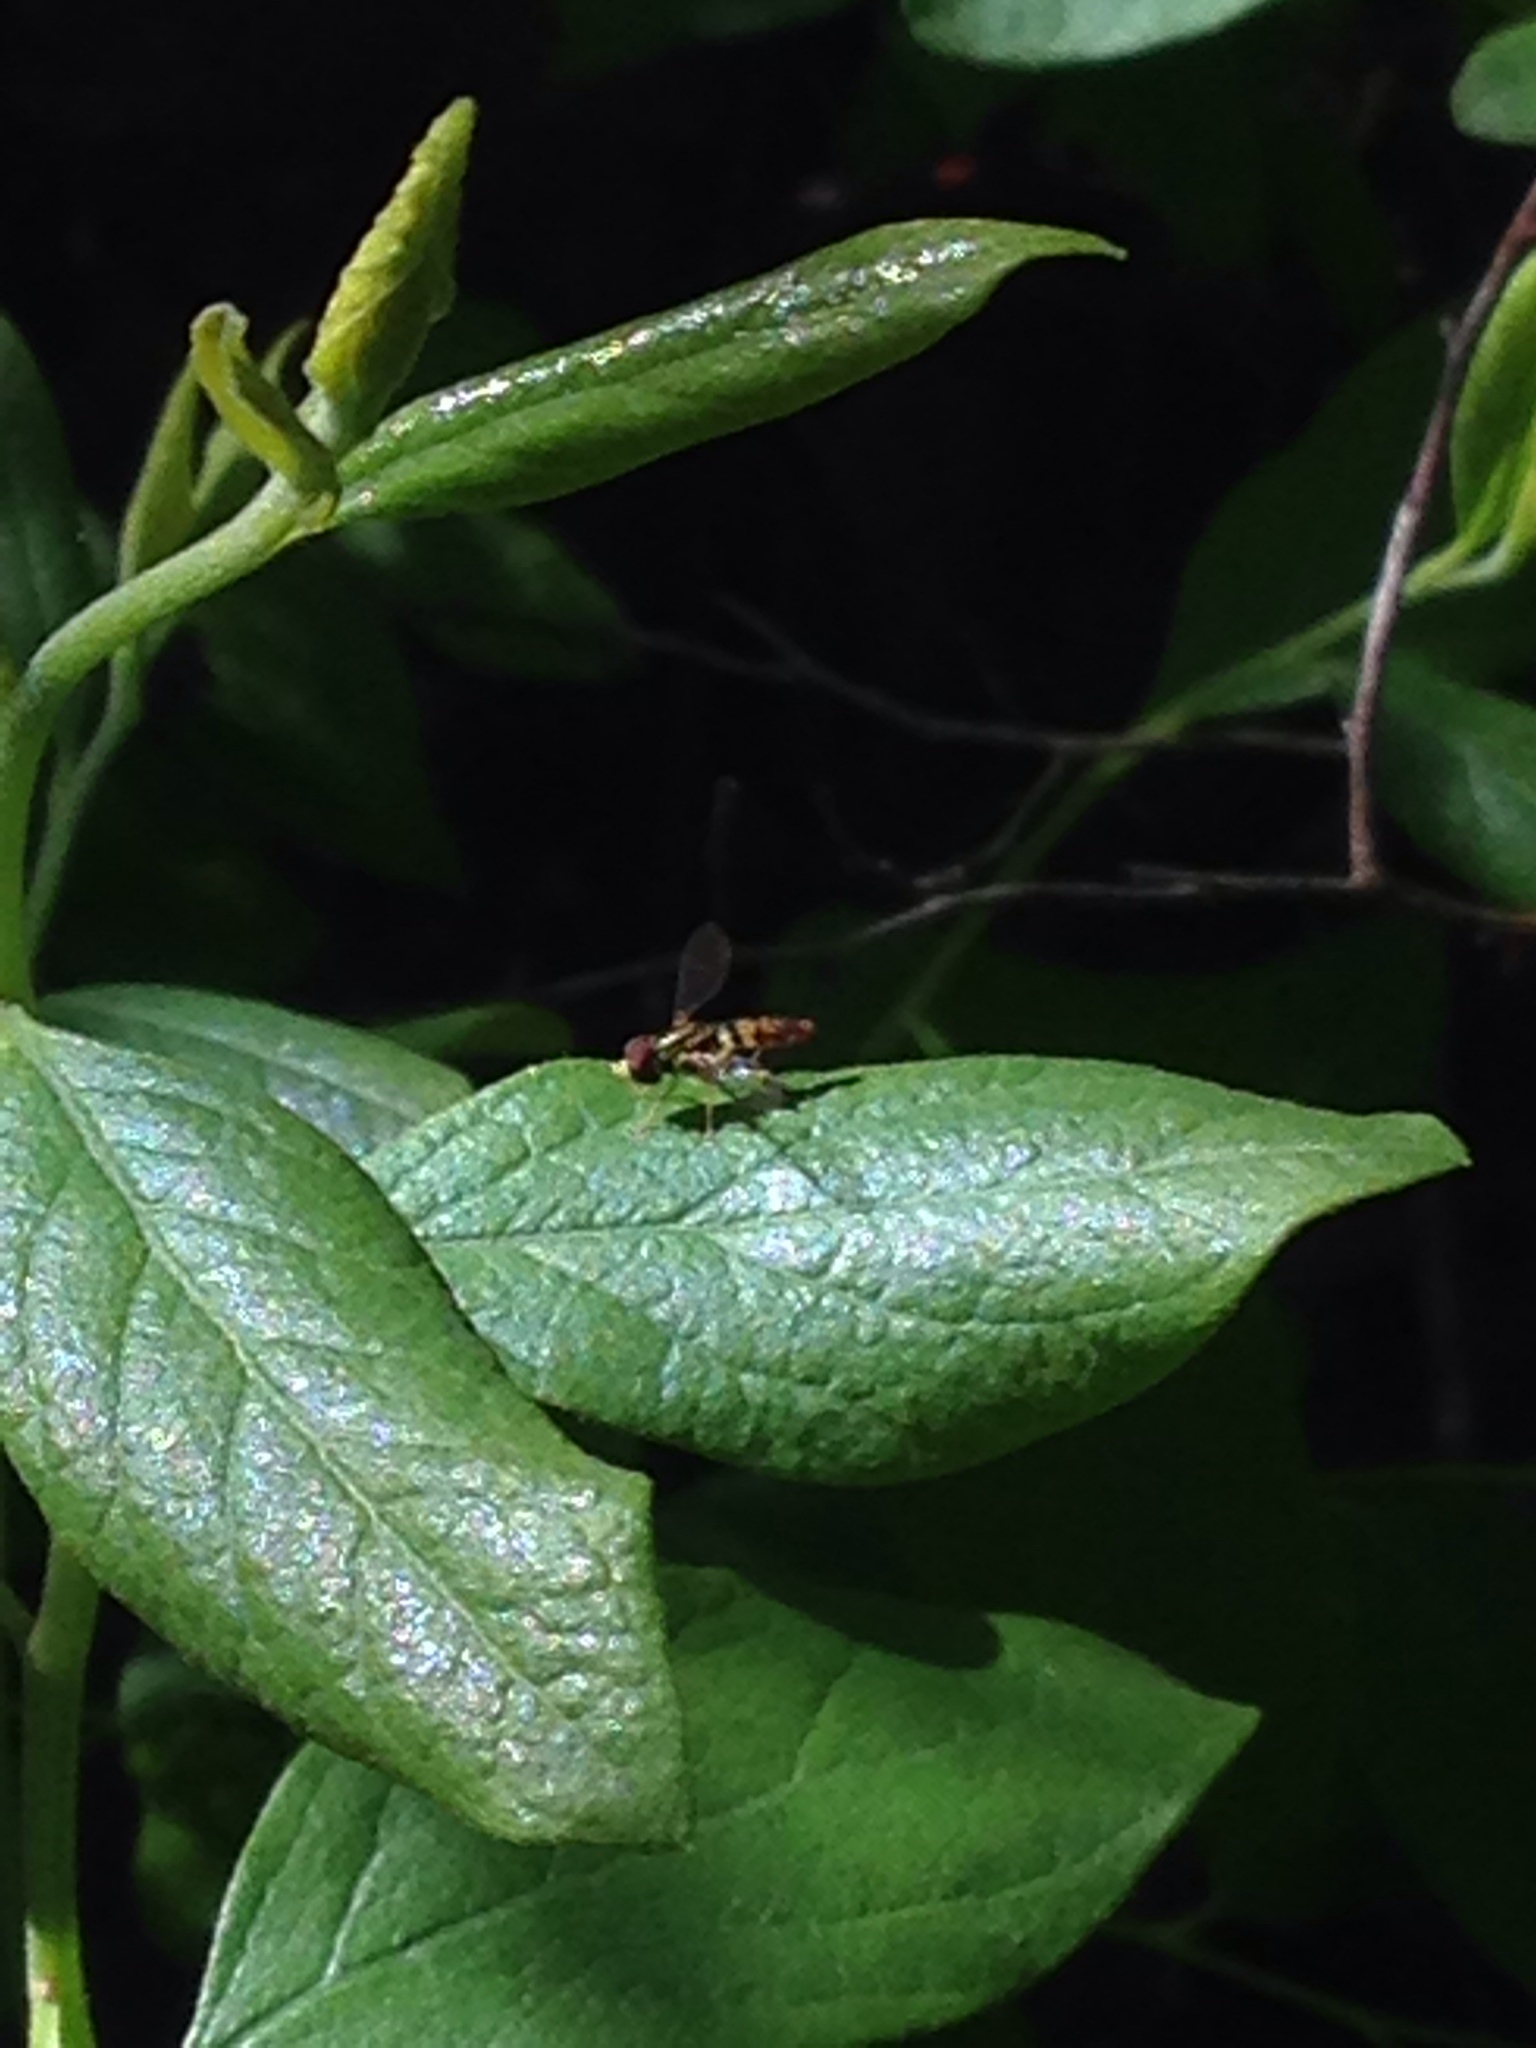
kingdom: Animalia
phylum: Arthropoda
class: Insecta
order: Diptera
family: Syrphidae
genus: Toxomerus
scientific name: Toxomerus geminatus
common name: Eastern calligrapher
